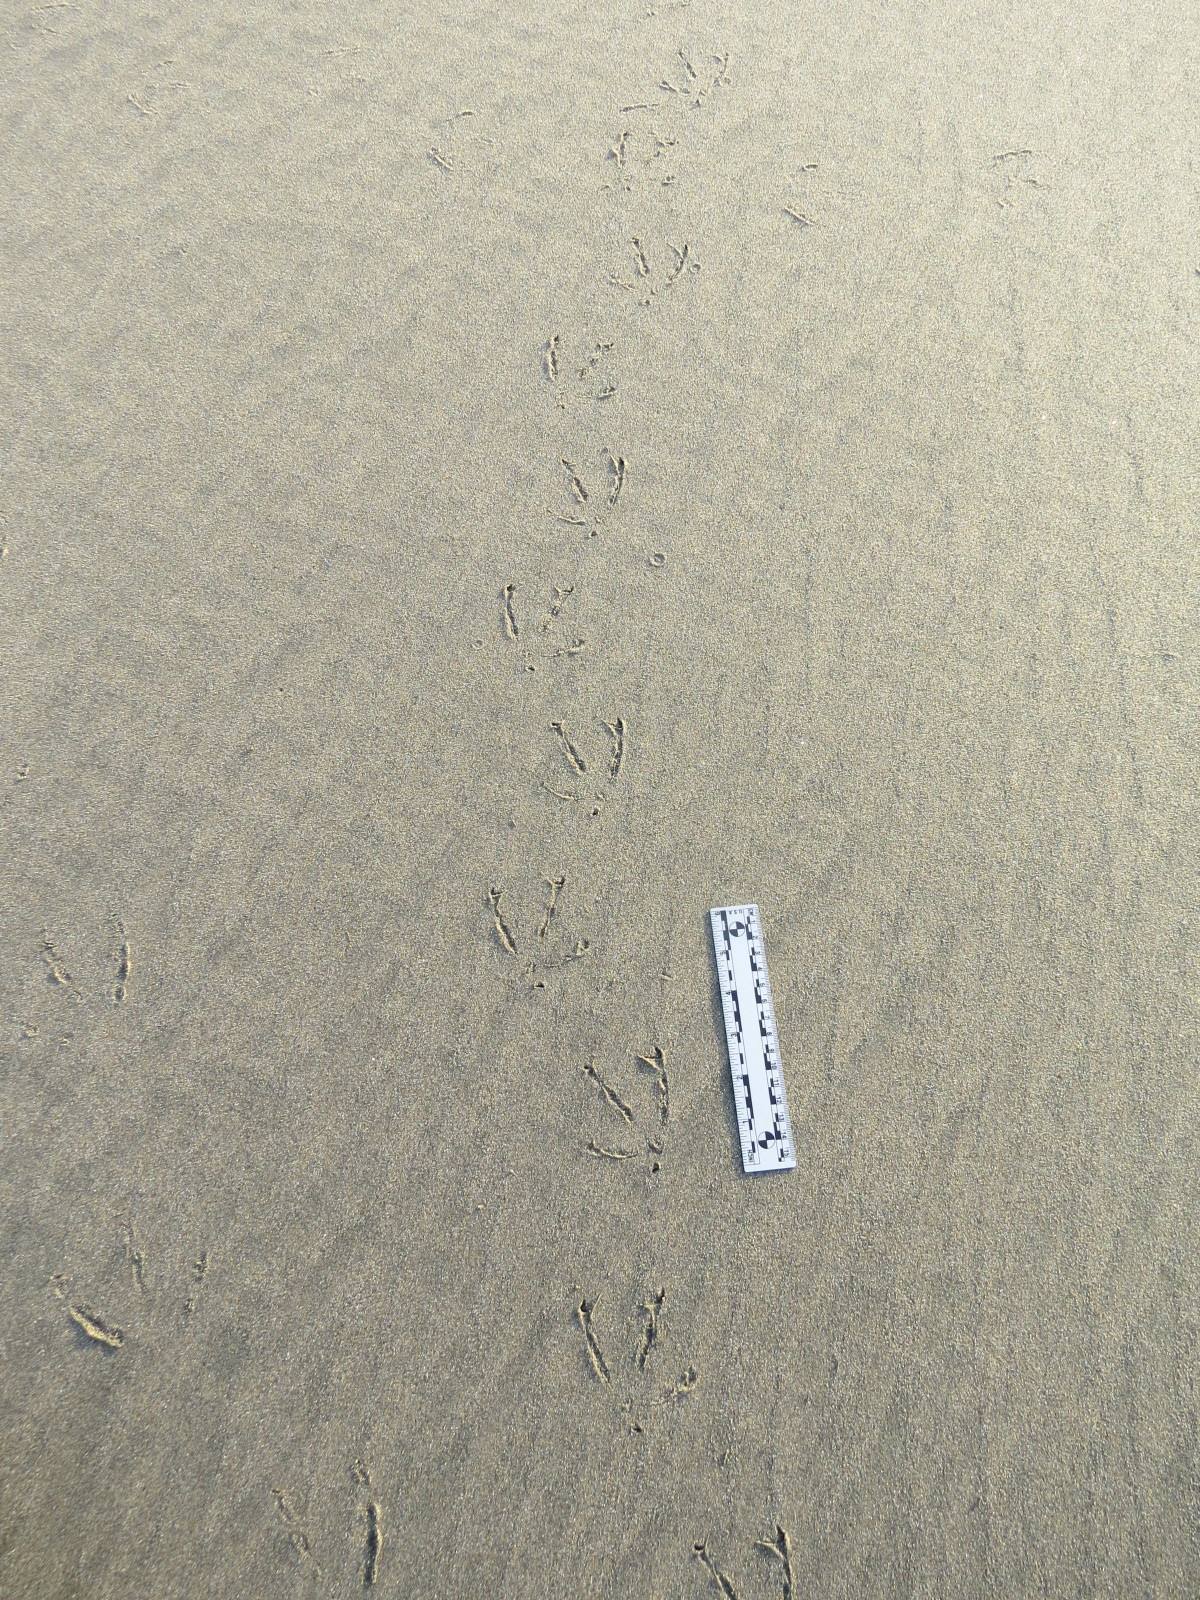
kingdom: Animalia
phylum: Chordata
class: Aves
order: Charadriiformes
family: Laridae
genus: Larus
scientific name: Larus californicus
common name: California gull
